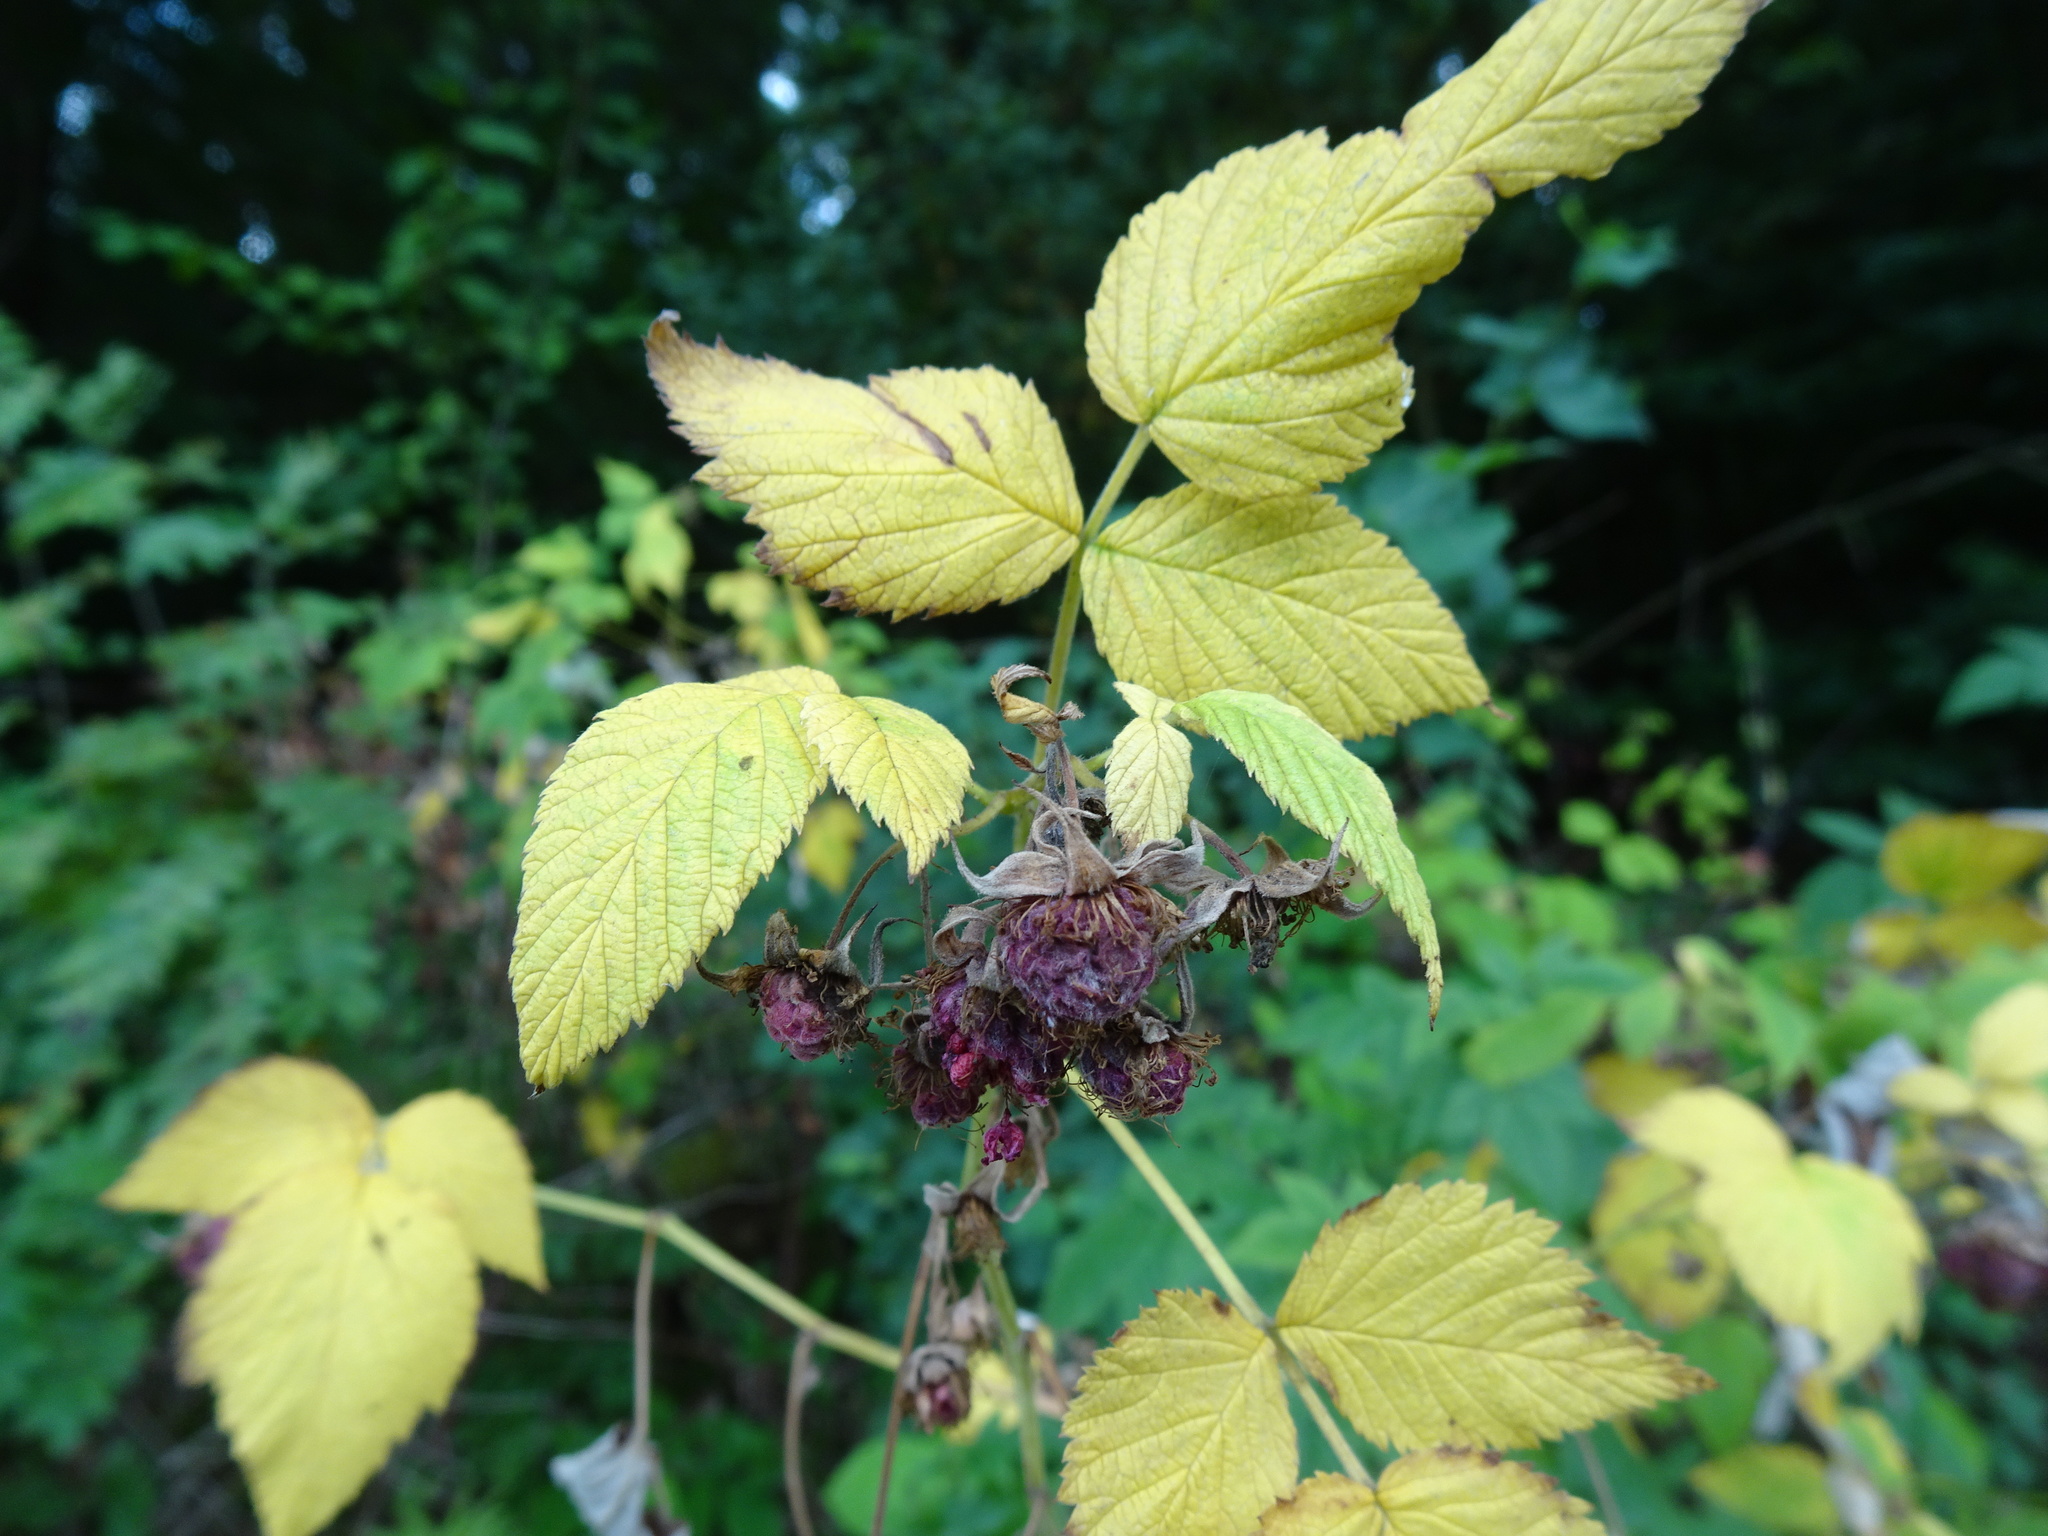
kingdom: Plantae
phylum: Tracheophyta
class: Magnoliopsida
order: Rosales
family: Rosaceae
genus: Rubus
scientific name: Rubus idaeus
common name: Raspberry
